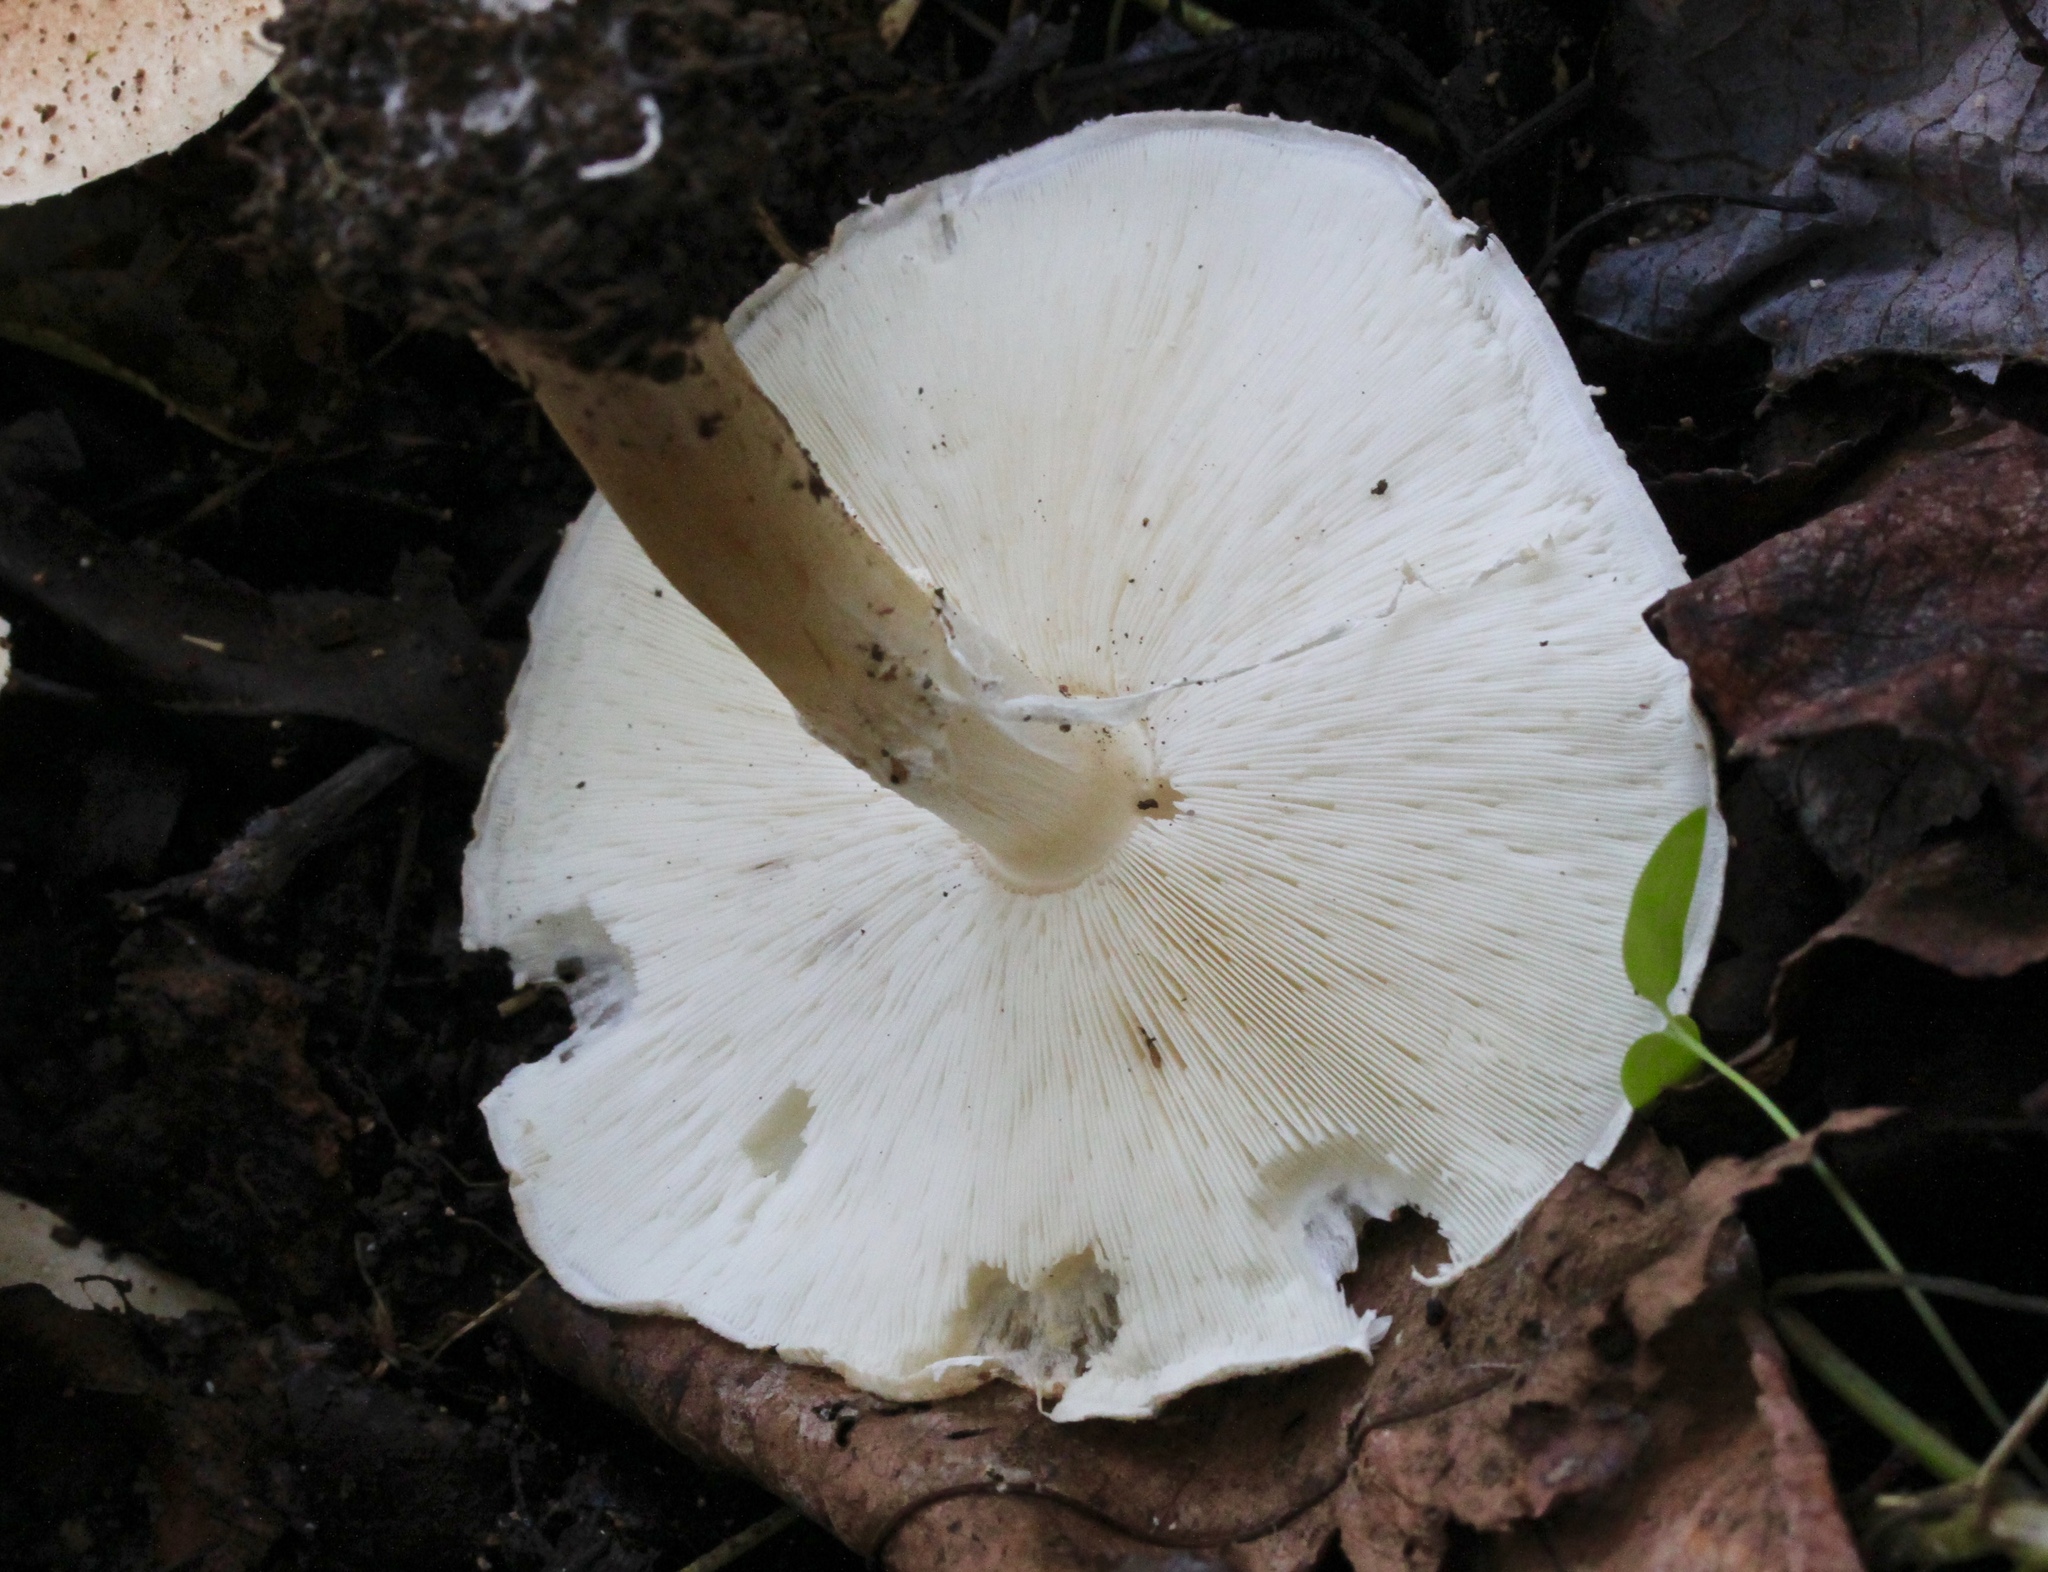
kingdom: Fungi
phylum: Basidiomycota
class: Agaricomycetes
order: Agaricales
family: Agaricaceae
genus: Echinoderma
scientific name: Echinoderma asperum
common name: Freckled dapperling
